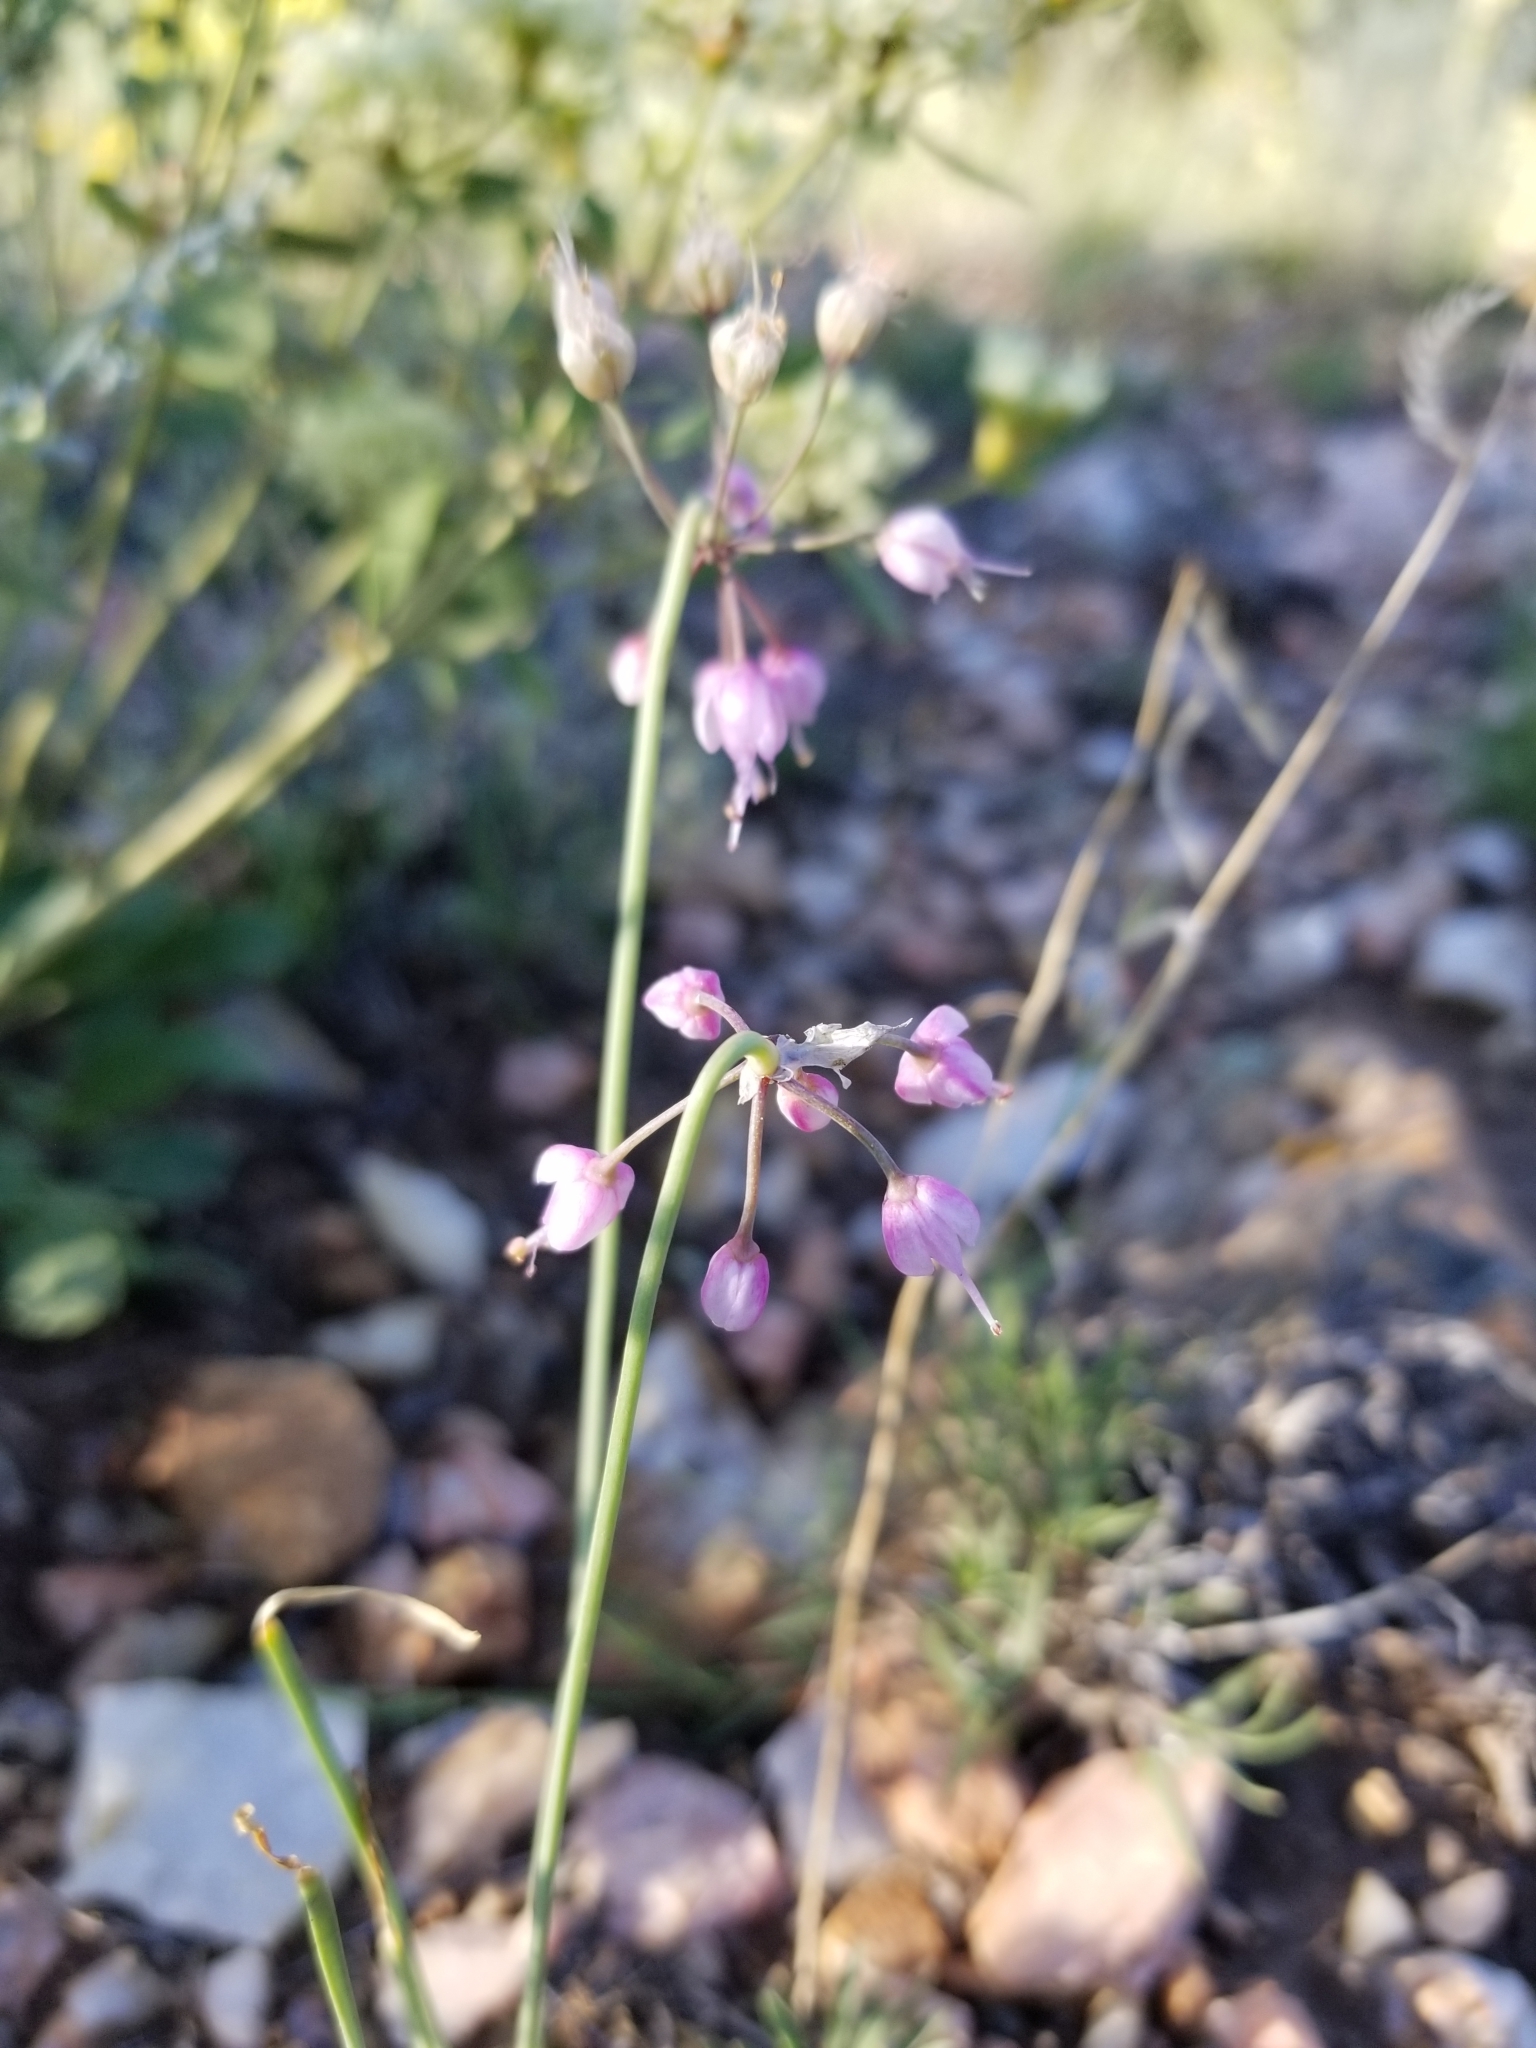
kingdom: Plantae
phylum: Tracheophyta
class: Liliopsida
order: Asparagales
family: Amaryllidaceae
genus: Allium
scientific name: Allium cernuum
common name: Nodding onion
